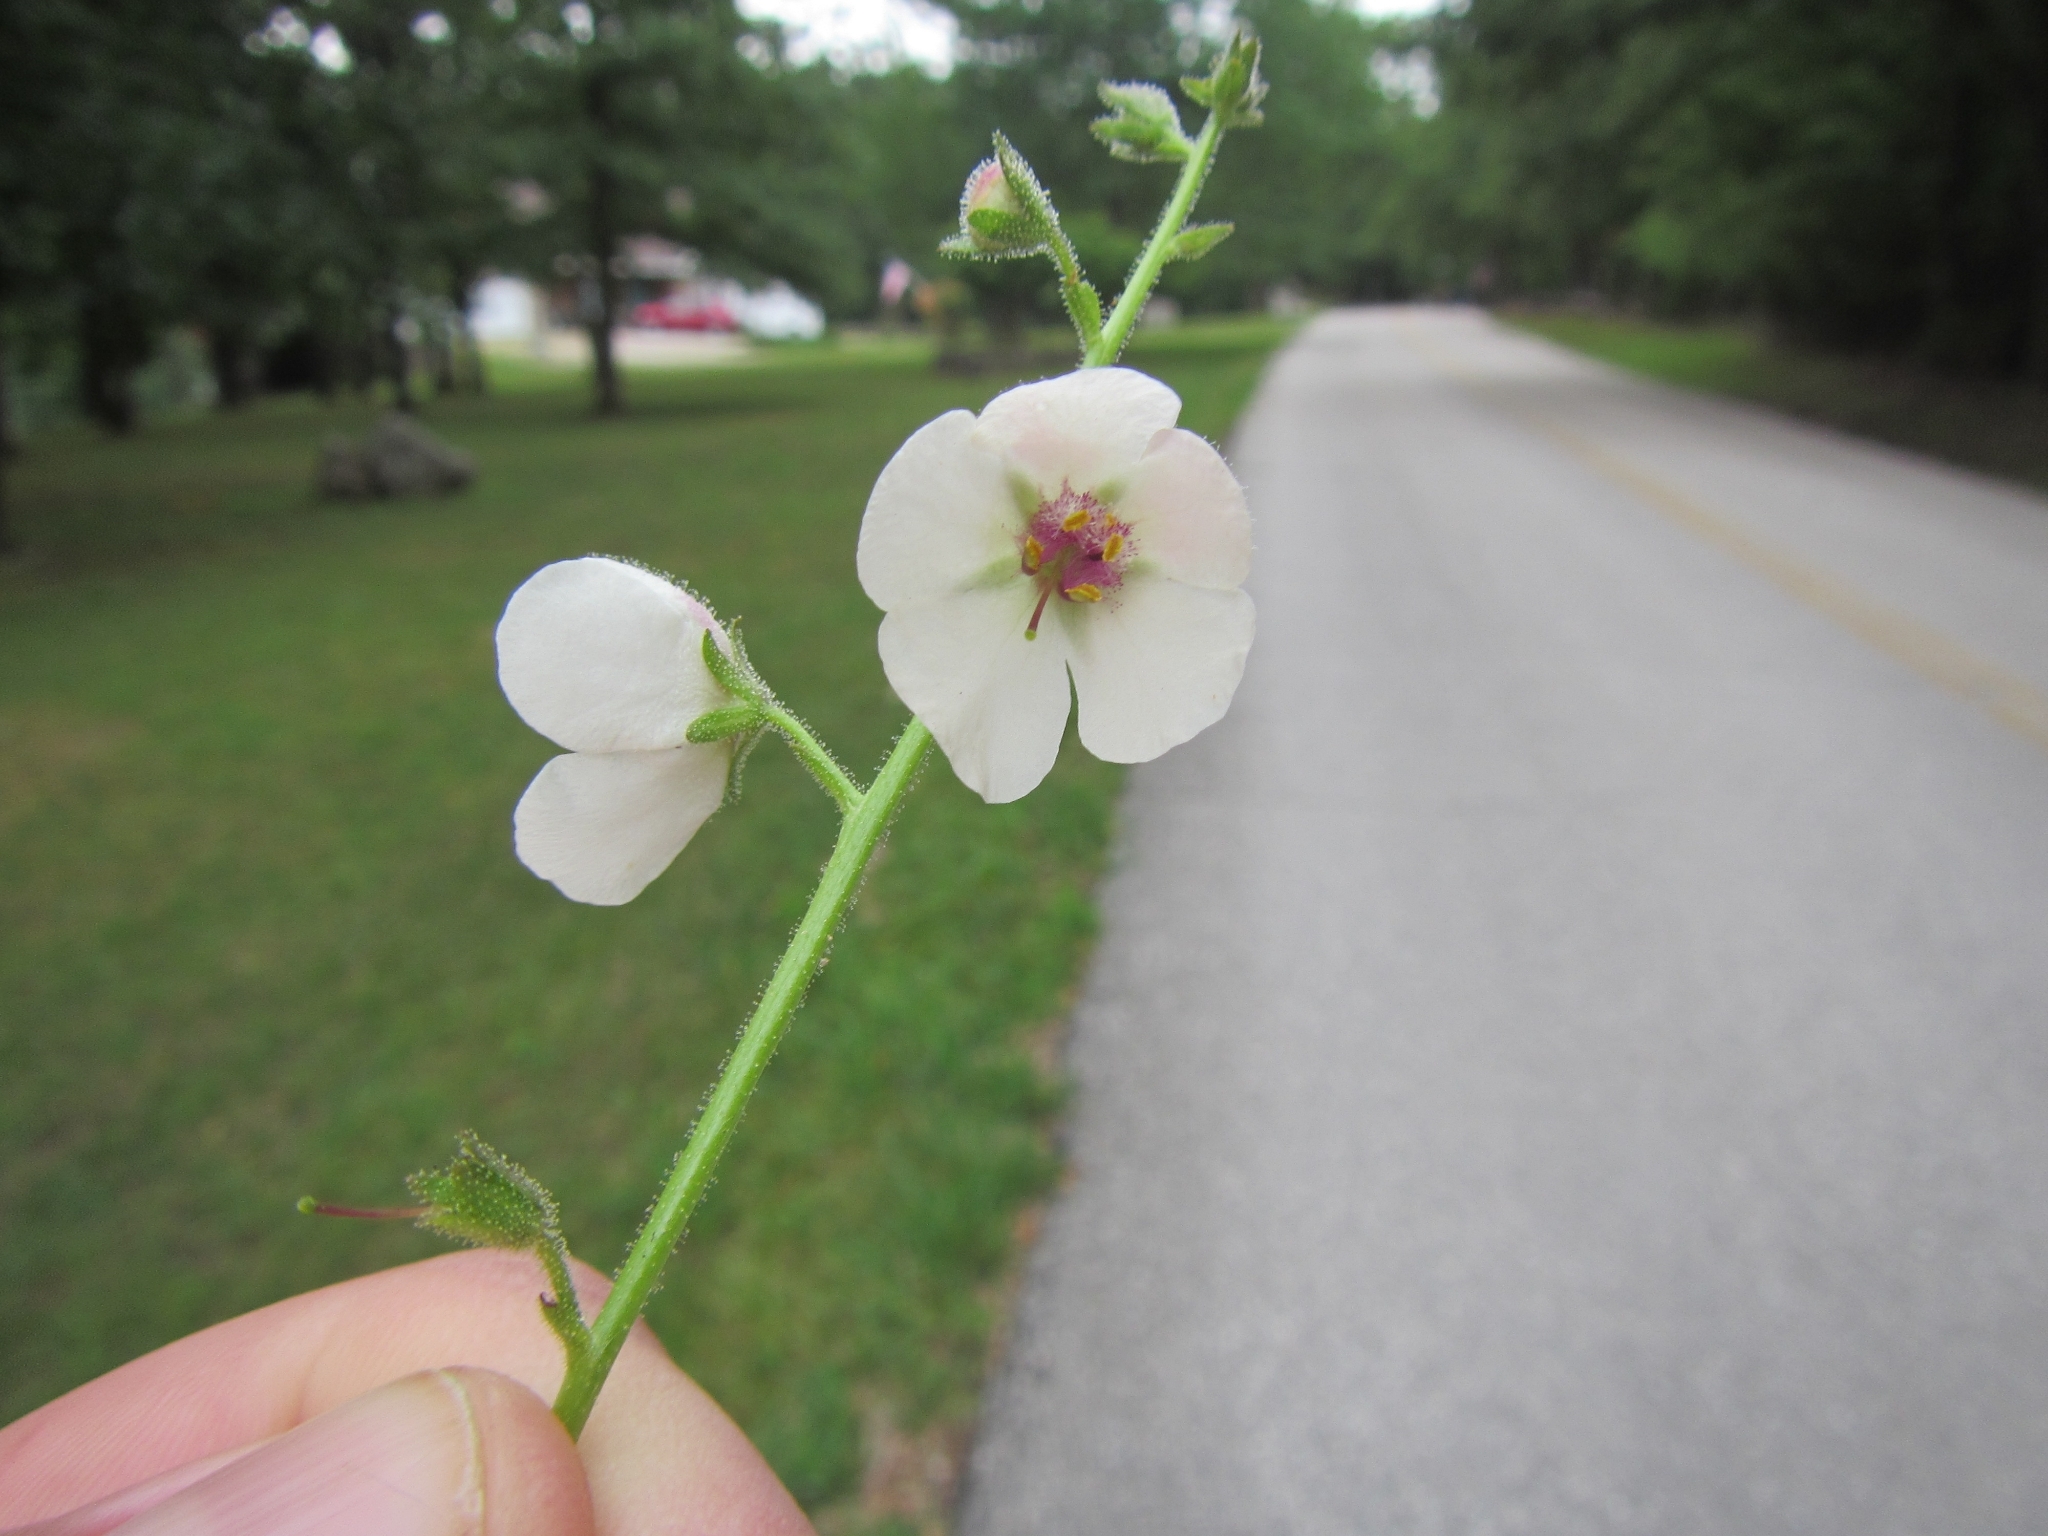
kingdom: Plantae
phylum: Tracheophyta
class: Magnoliopsida
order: Lamiales
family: Scrophulariaceae
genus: Verbascum
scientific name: Verbascum blattaria
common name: Moth mullein
